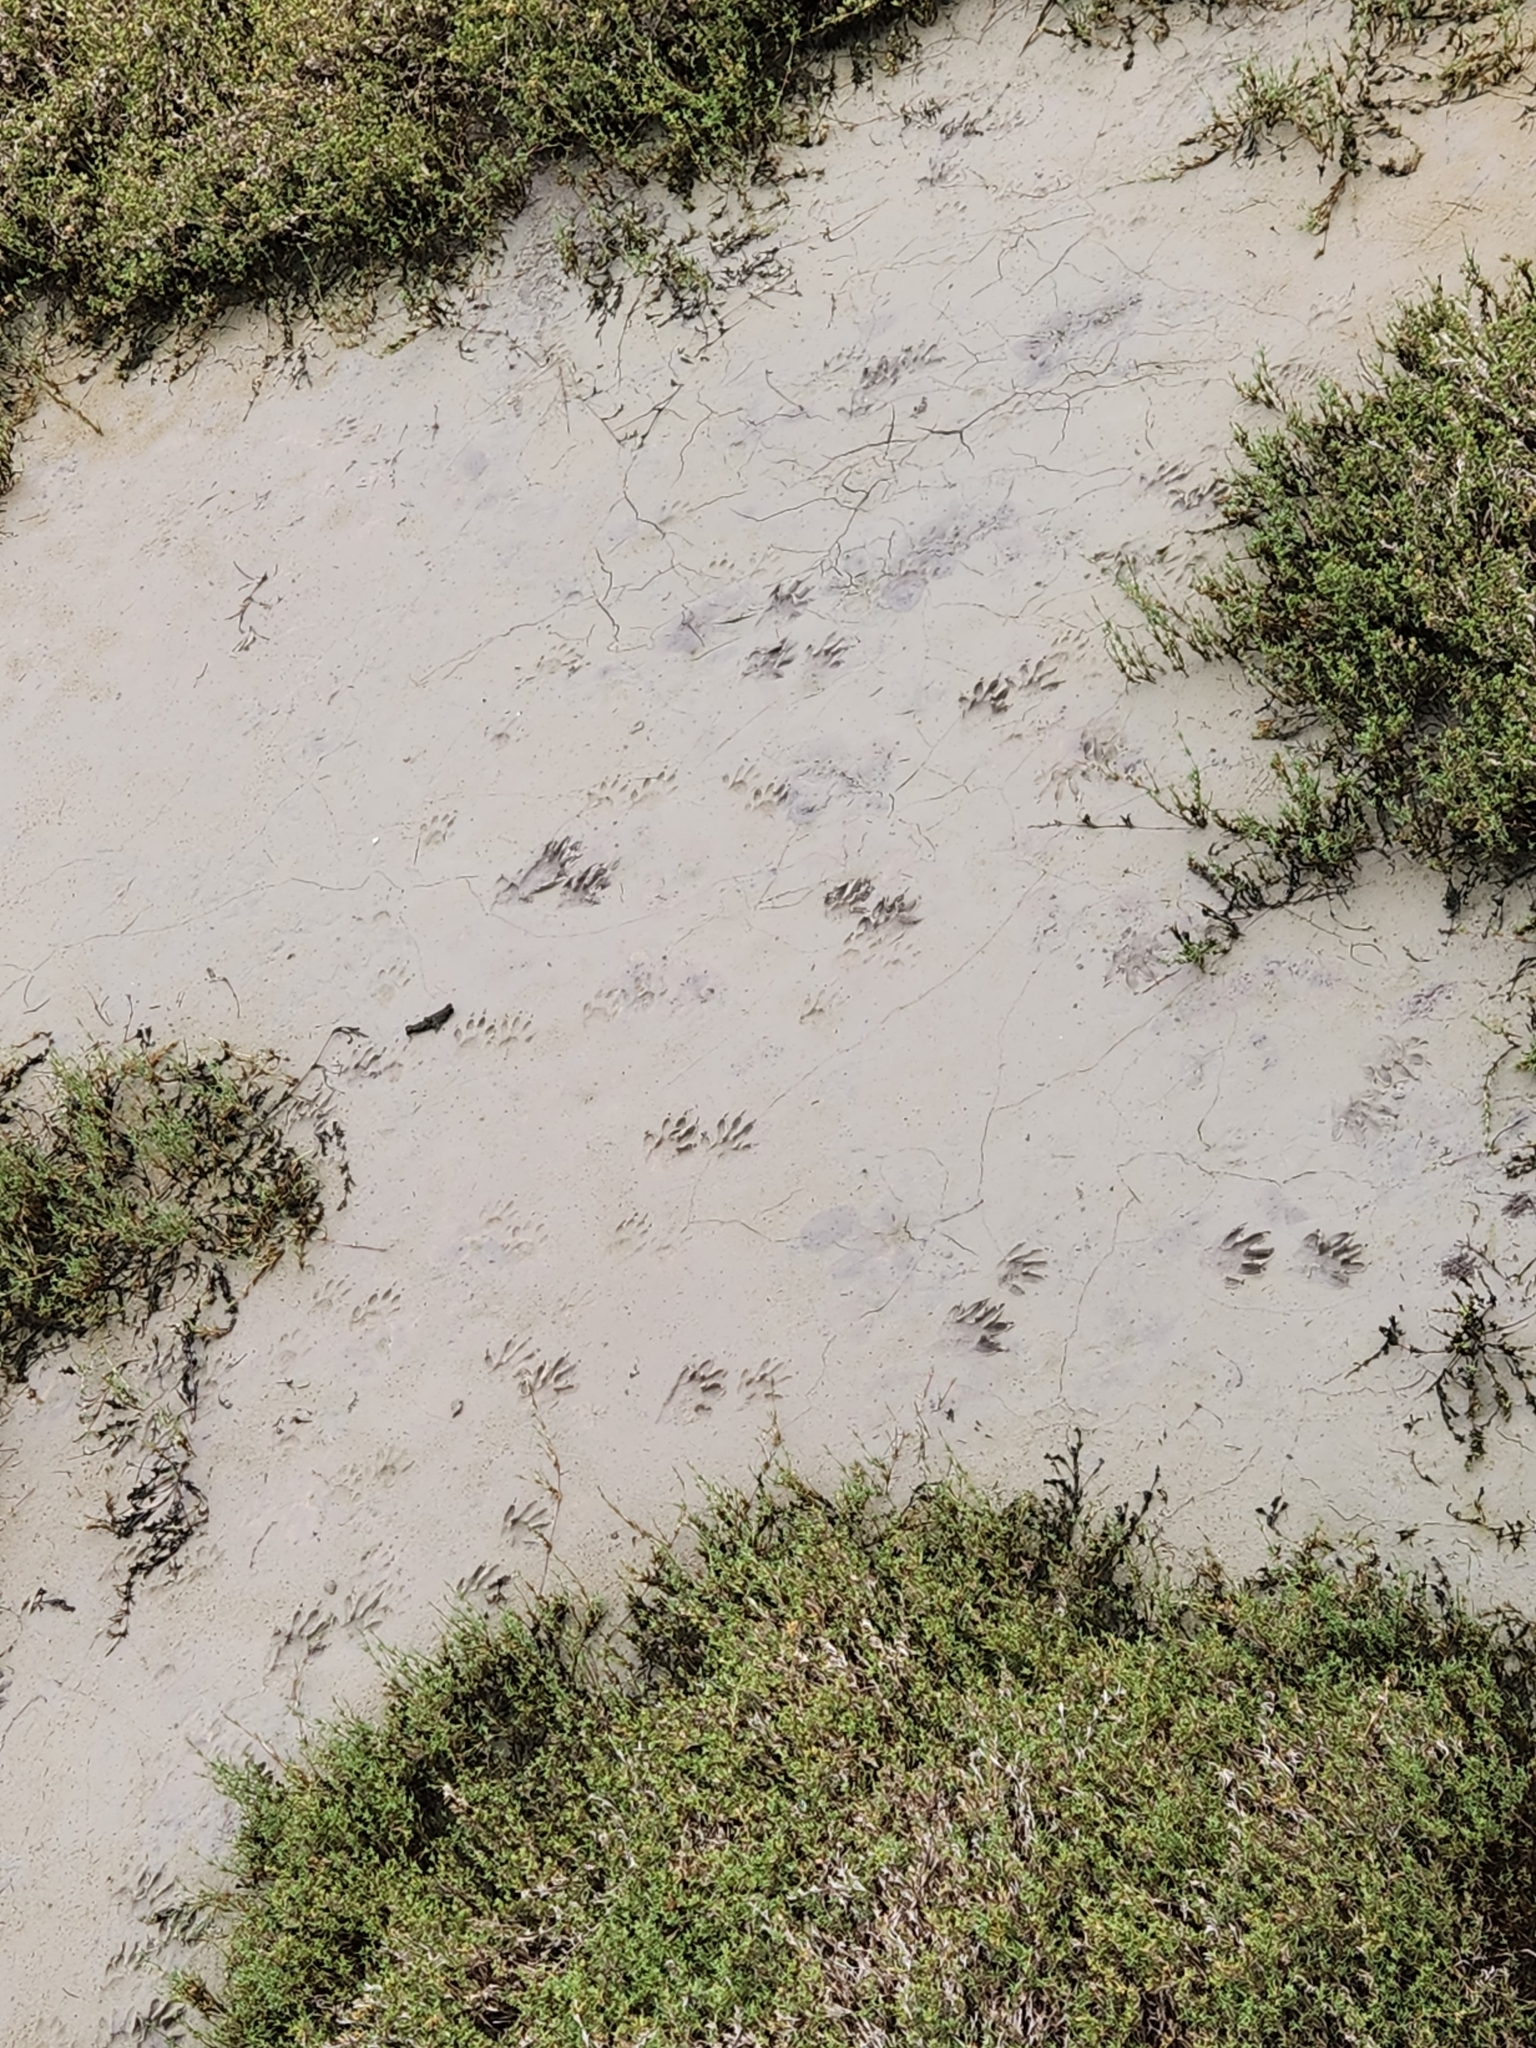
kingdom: Animalia
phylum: Chordata
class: Mammalia
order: Carnivora
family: Procyonidae
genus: Procyon
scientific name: Procyon lotor
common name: Raccoon
